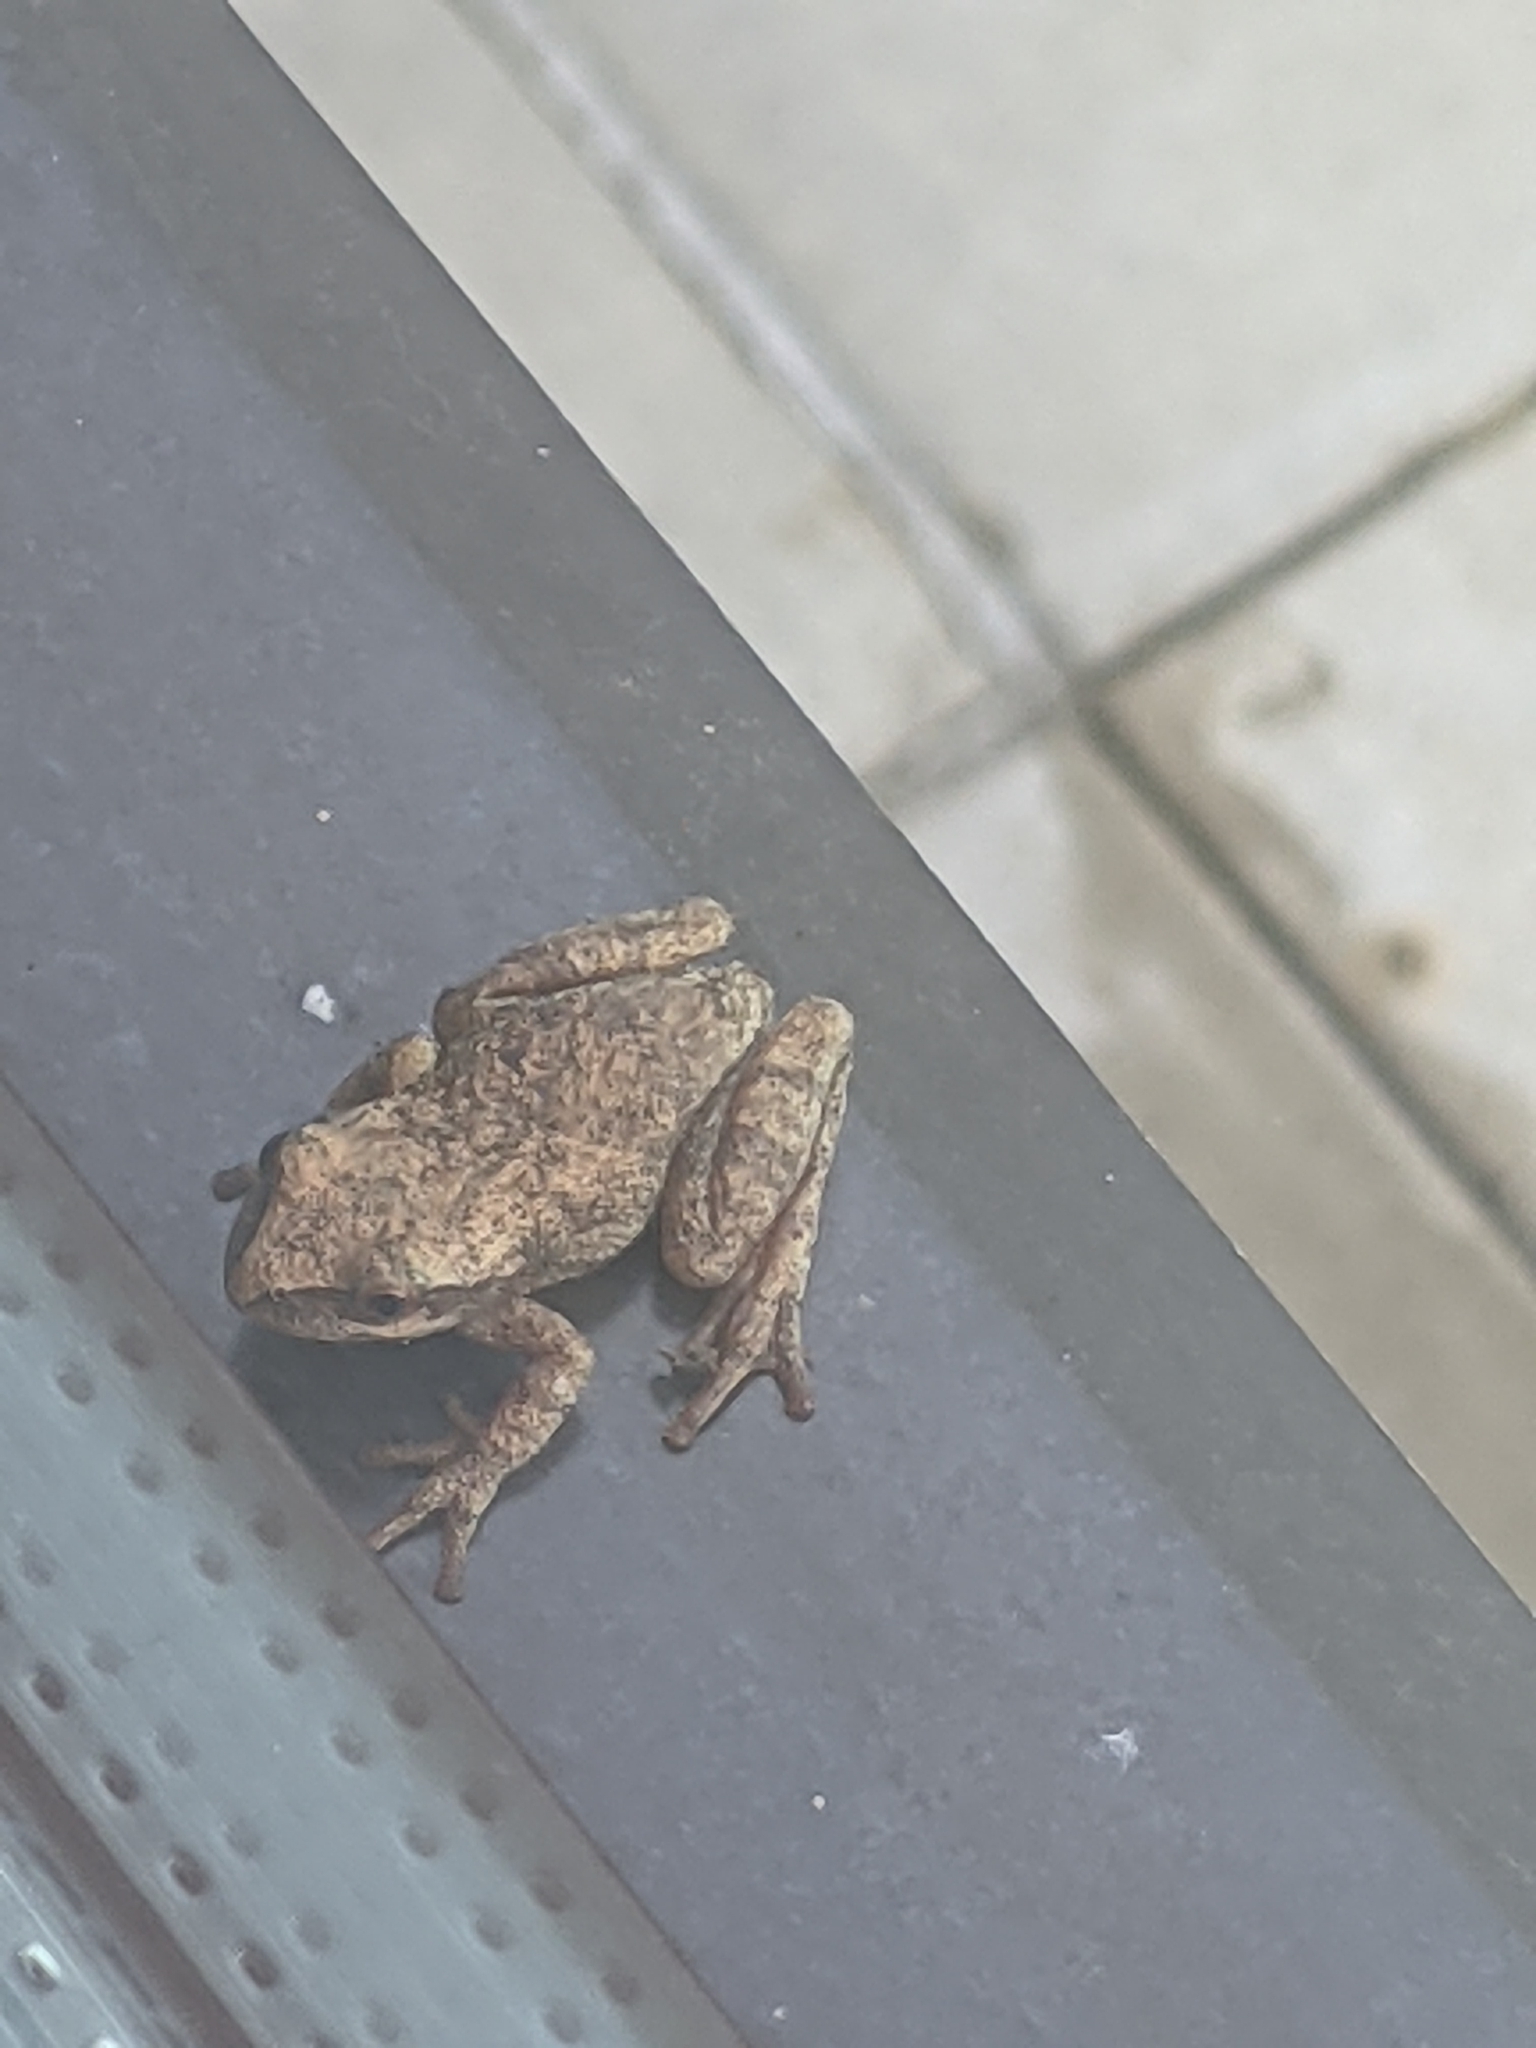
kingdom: Animalia
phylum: Chordata
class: Amphibia
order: Anura
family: Hylidae
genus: Pseudacris
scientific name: Pseudacris crucifer
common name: Spring peeper
